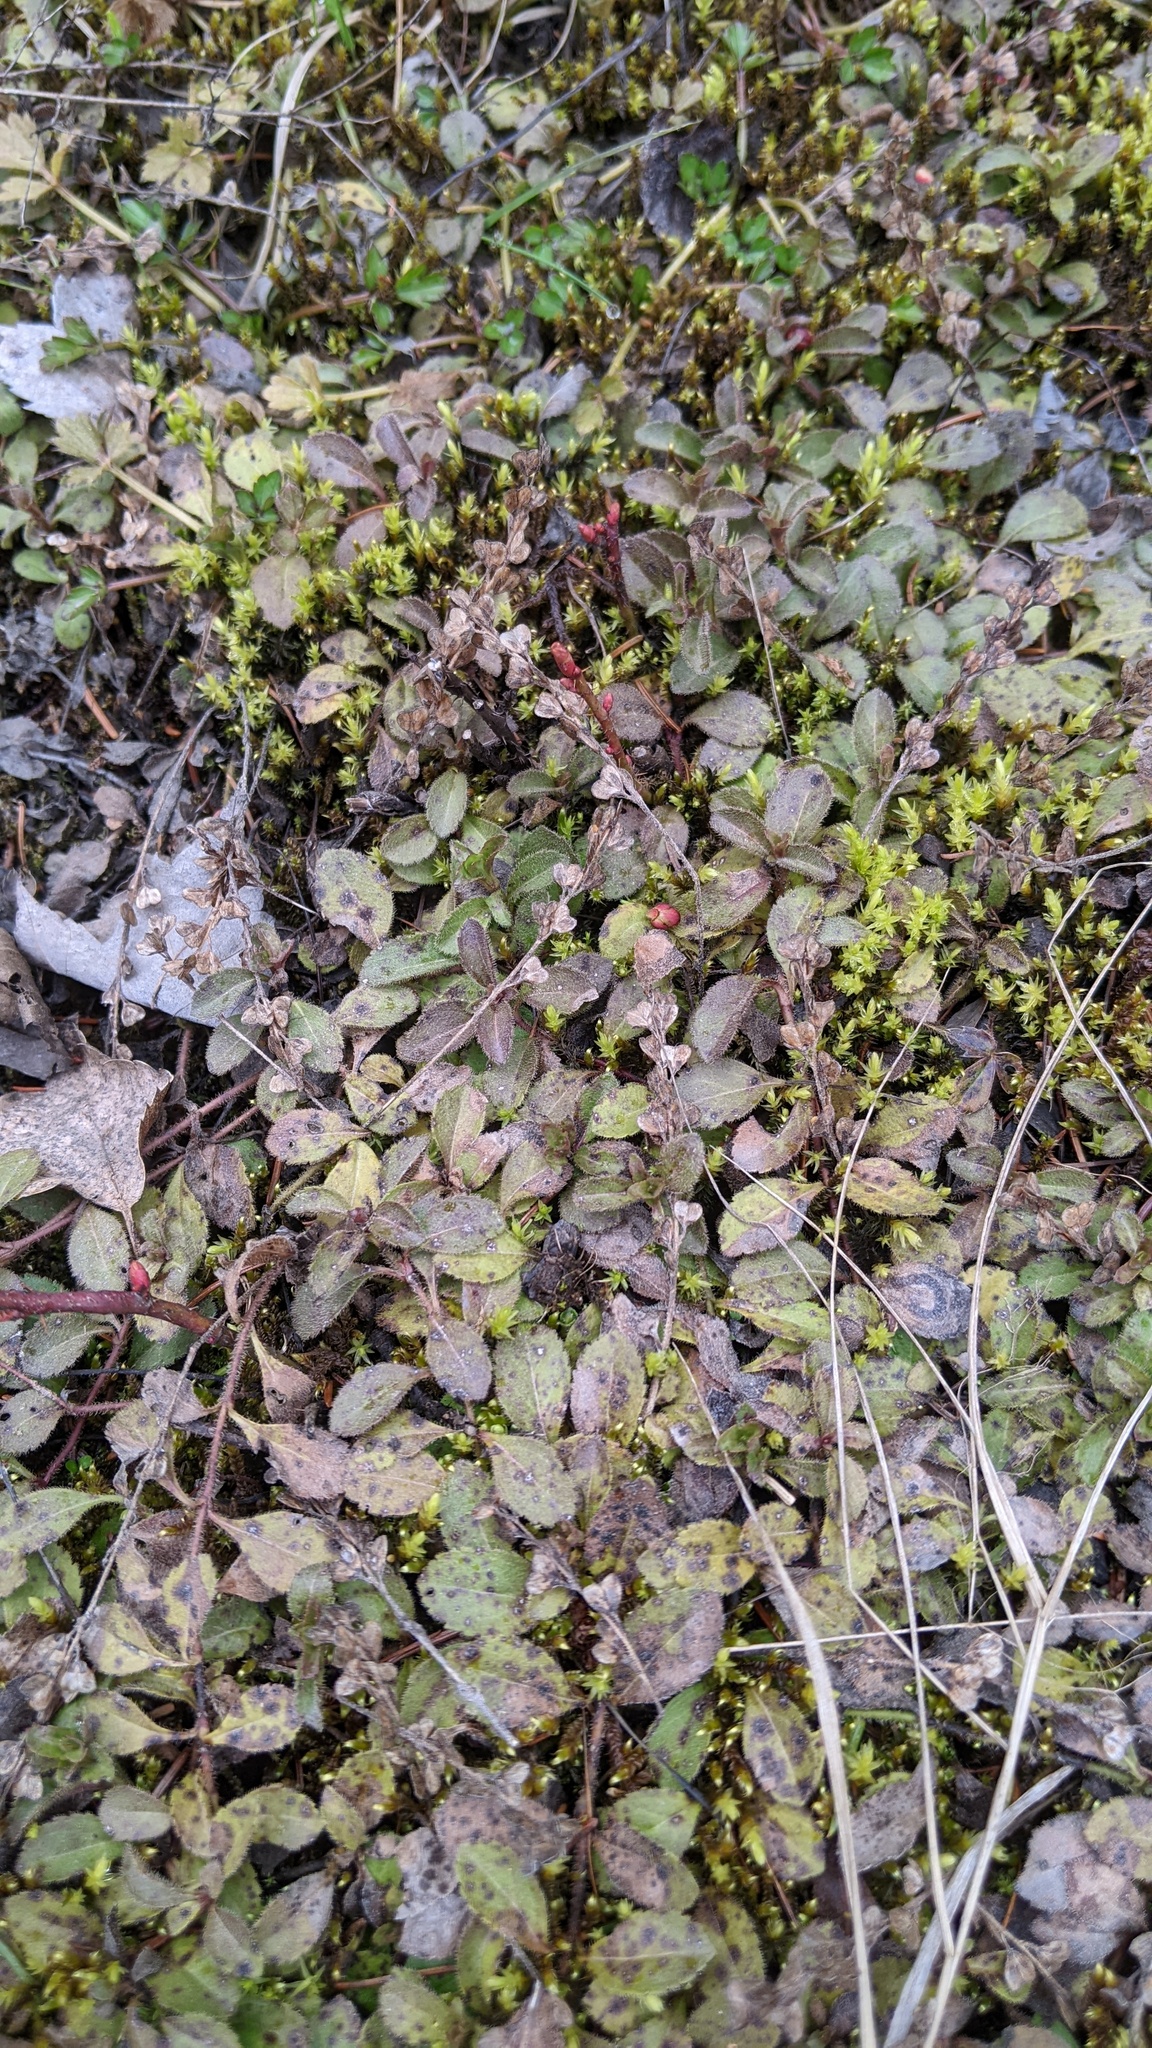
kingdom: Plantae
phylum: Tracheophyta
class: Magnoliopsida
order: Lamiales
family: Plantaginaceae
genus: Veronica
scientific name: Veronica officinalis
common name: Common speedwell
